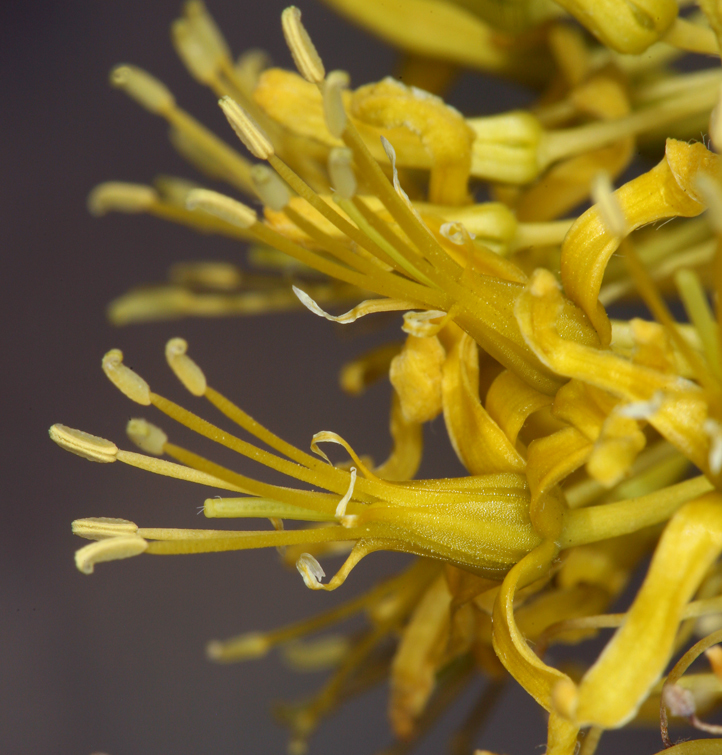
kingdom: Plantae
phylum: Tracheophyta
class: Magnoliopsida
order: Brassicales
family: Brassicaceae
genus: Stanleya
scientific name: Stanleya elata
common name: Panamint prince's plume
